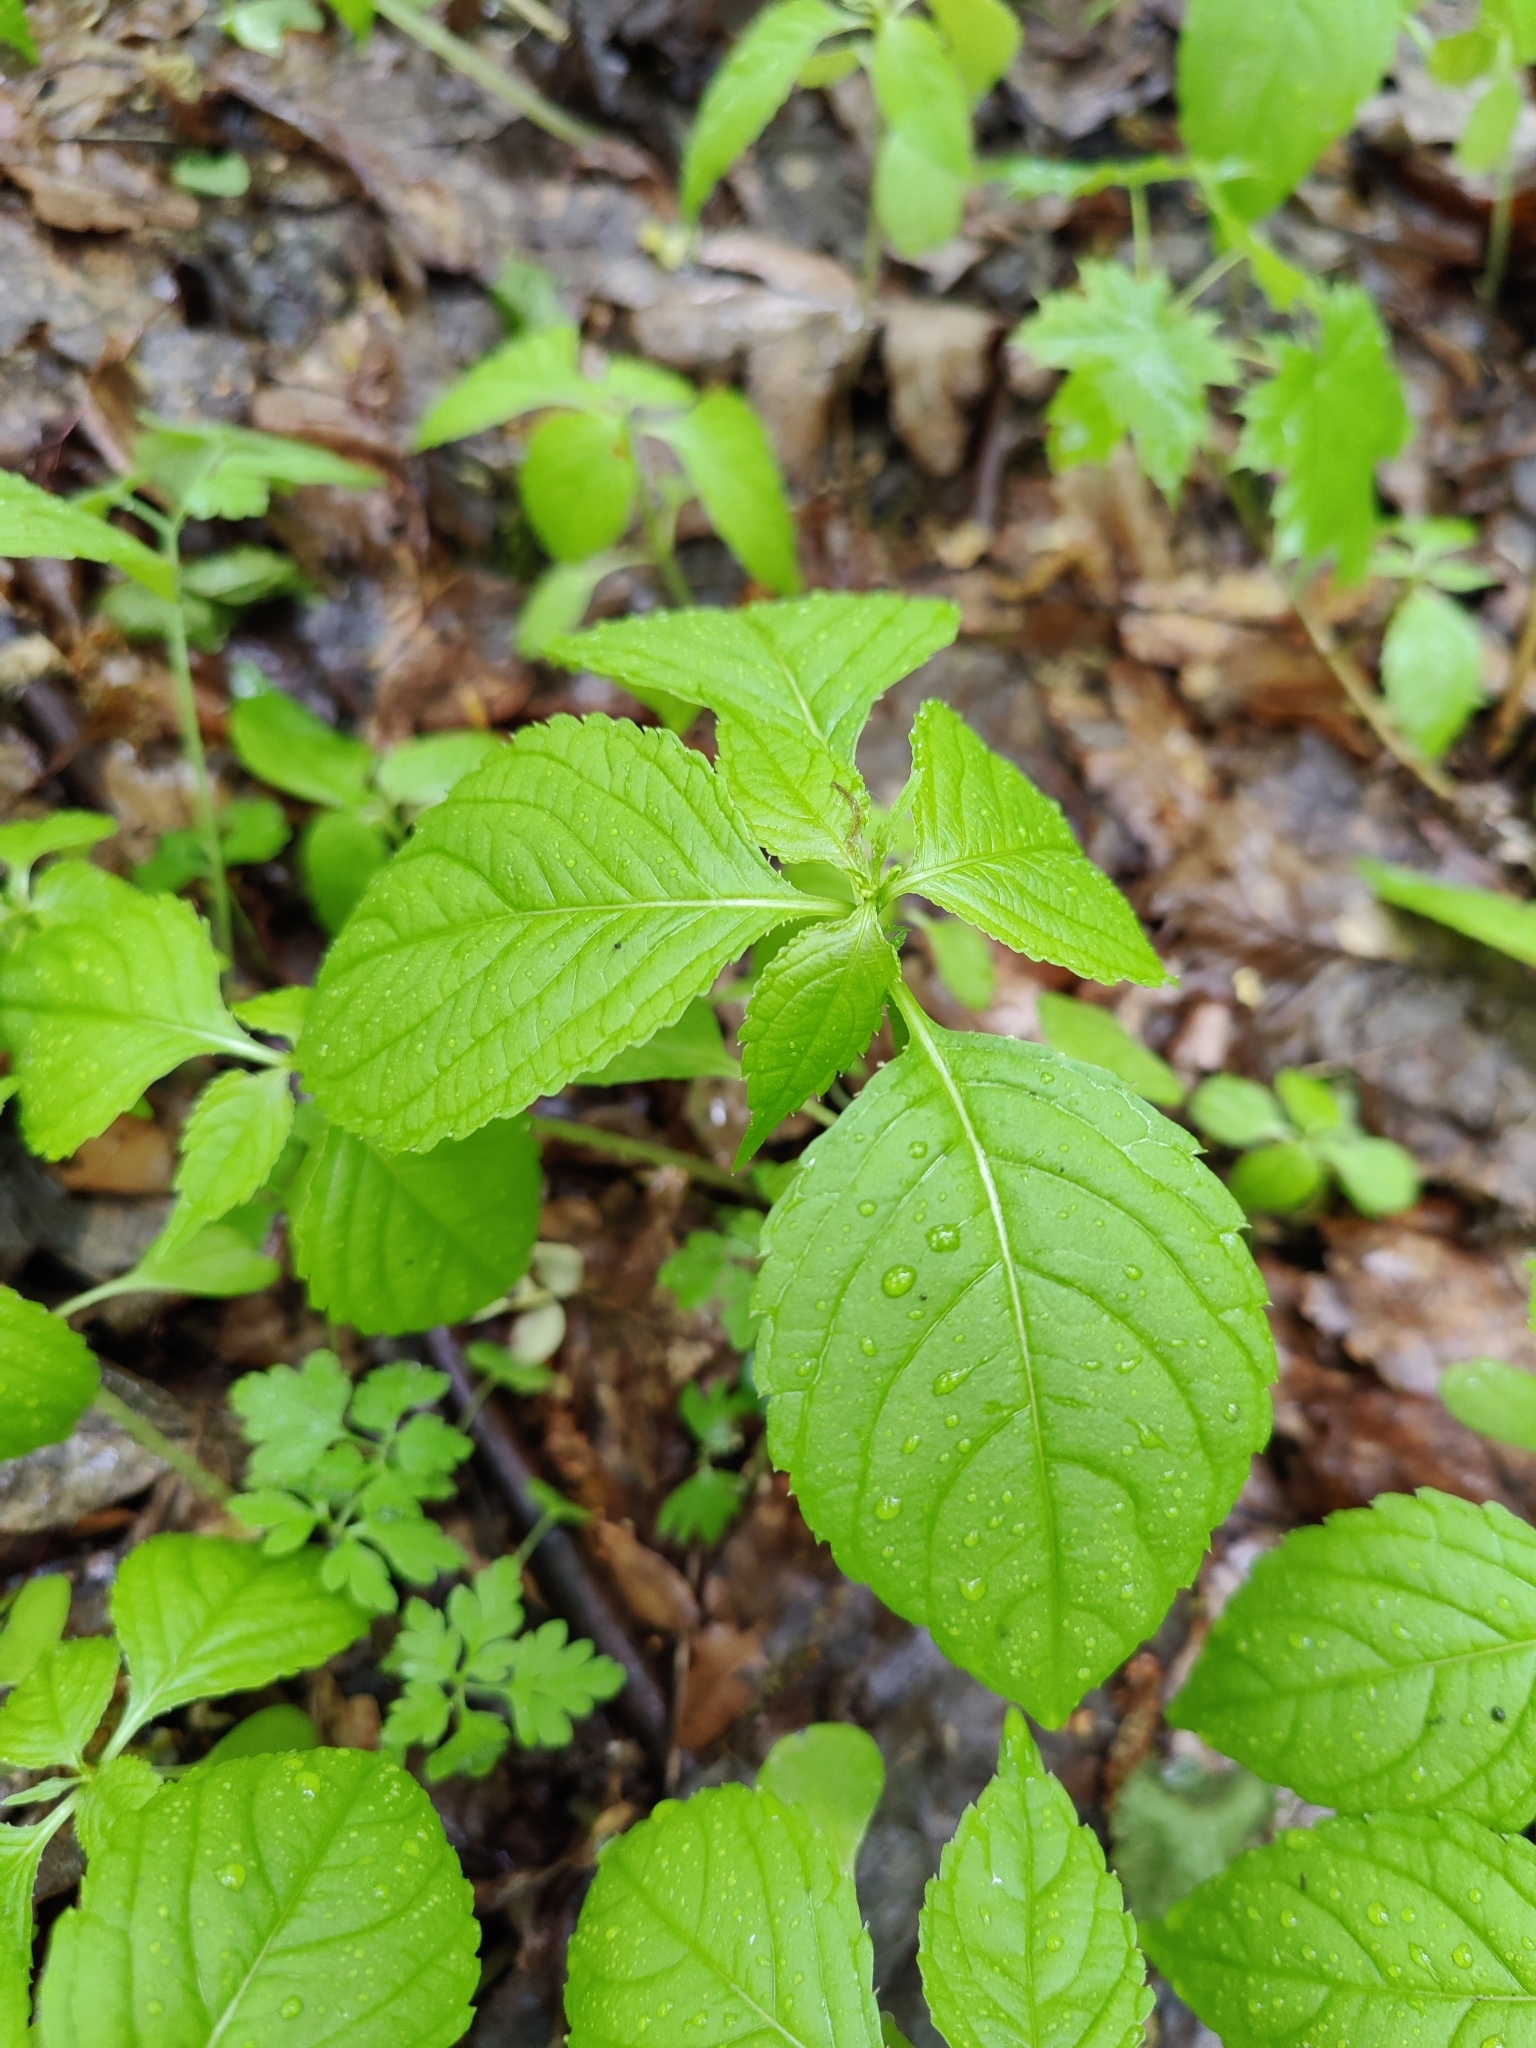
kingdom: Plantae
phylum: Tracheophyta
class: Magnoliopsida
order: Ericales
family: Balsaminaceae
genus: Impatiens
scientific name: Impatiens parviflora
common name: Small balsam
